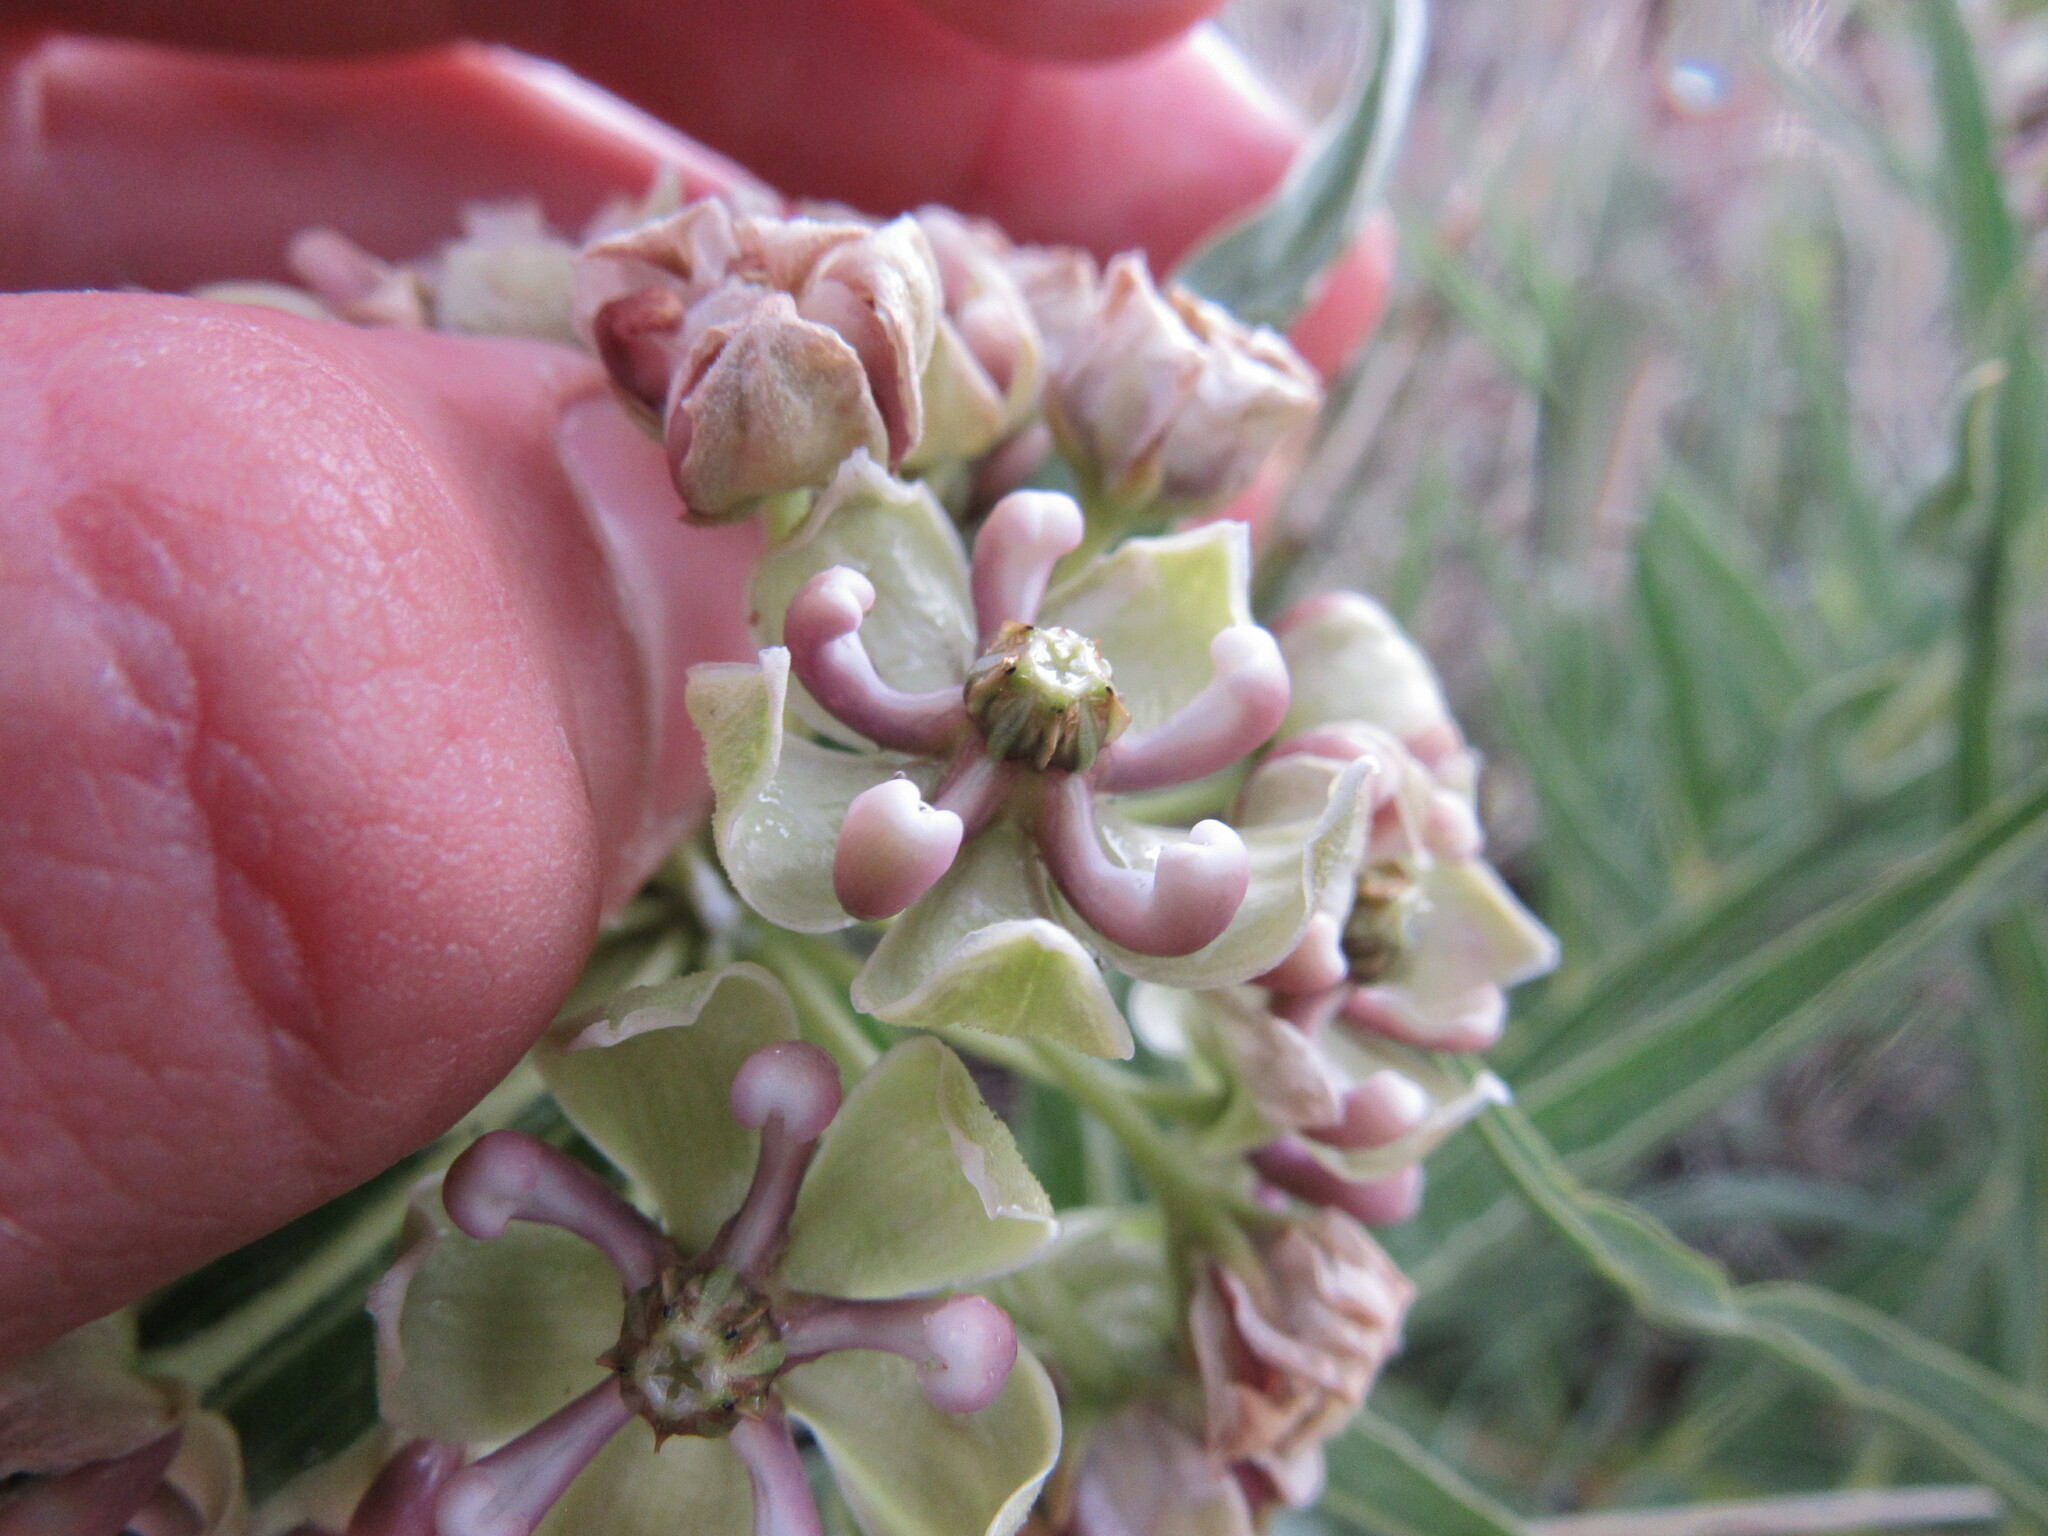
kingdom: Plantae
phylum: Tracheophyta
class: Magnoliopsida
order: Gentianales
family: Apocynaceae
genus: Asclepias
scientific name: Asclepias asperula
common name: Antelope horns
